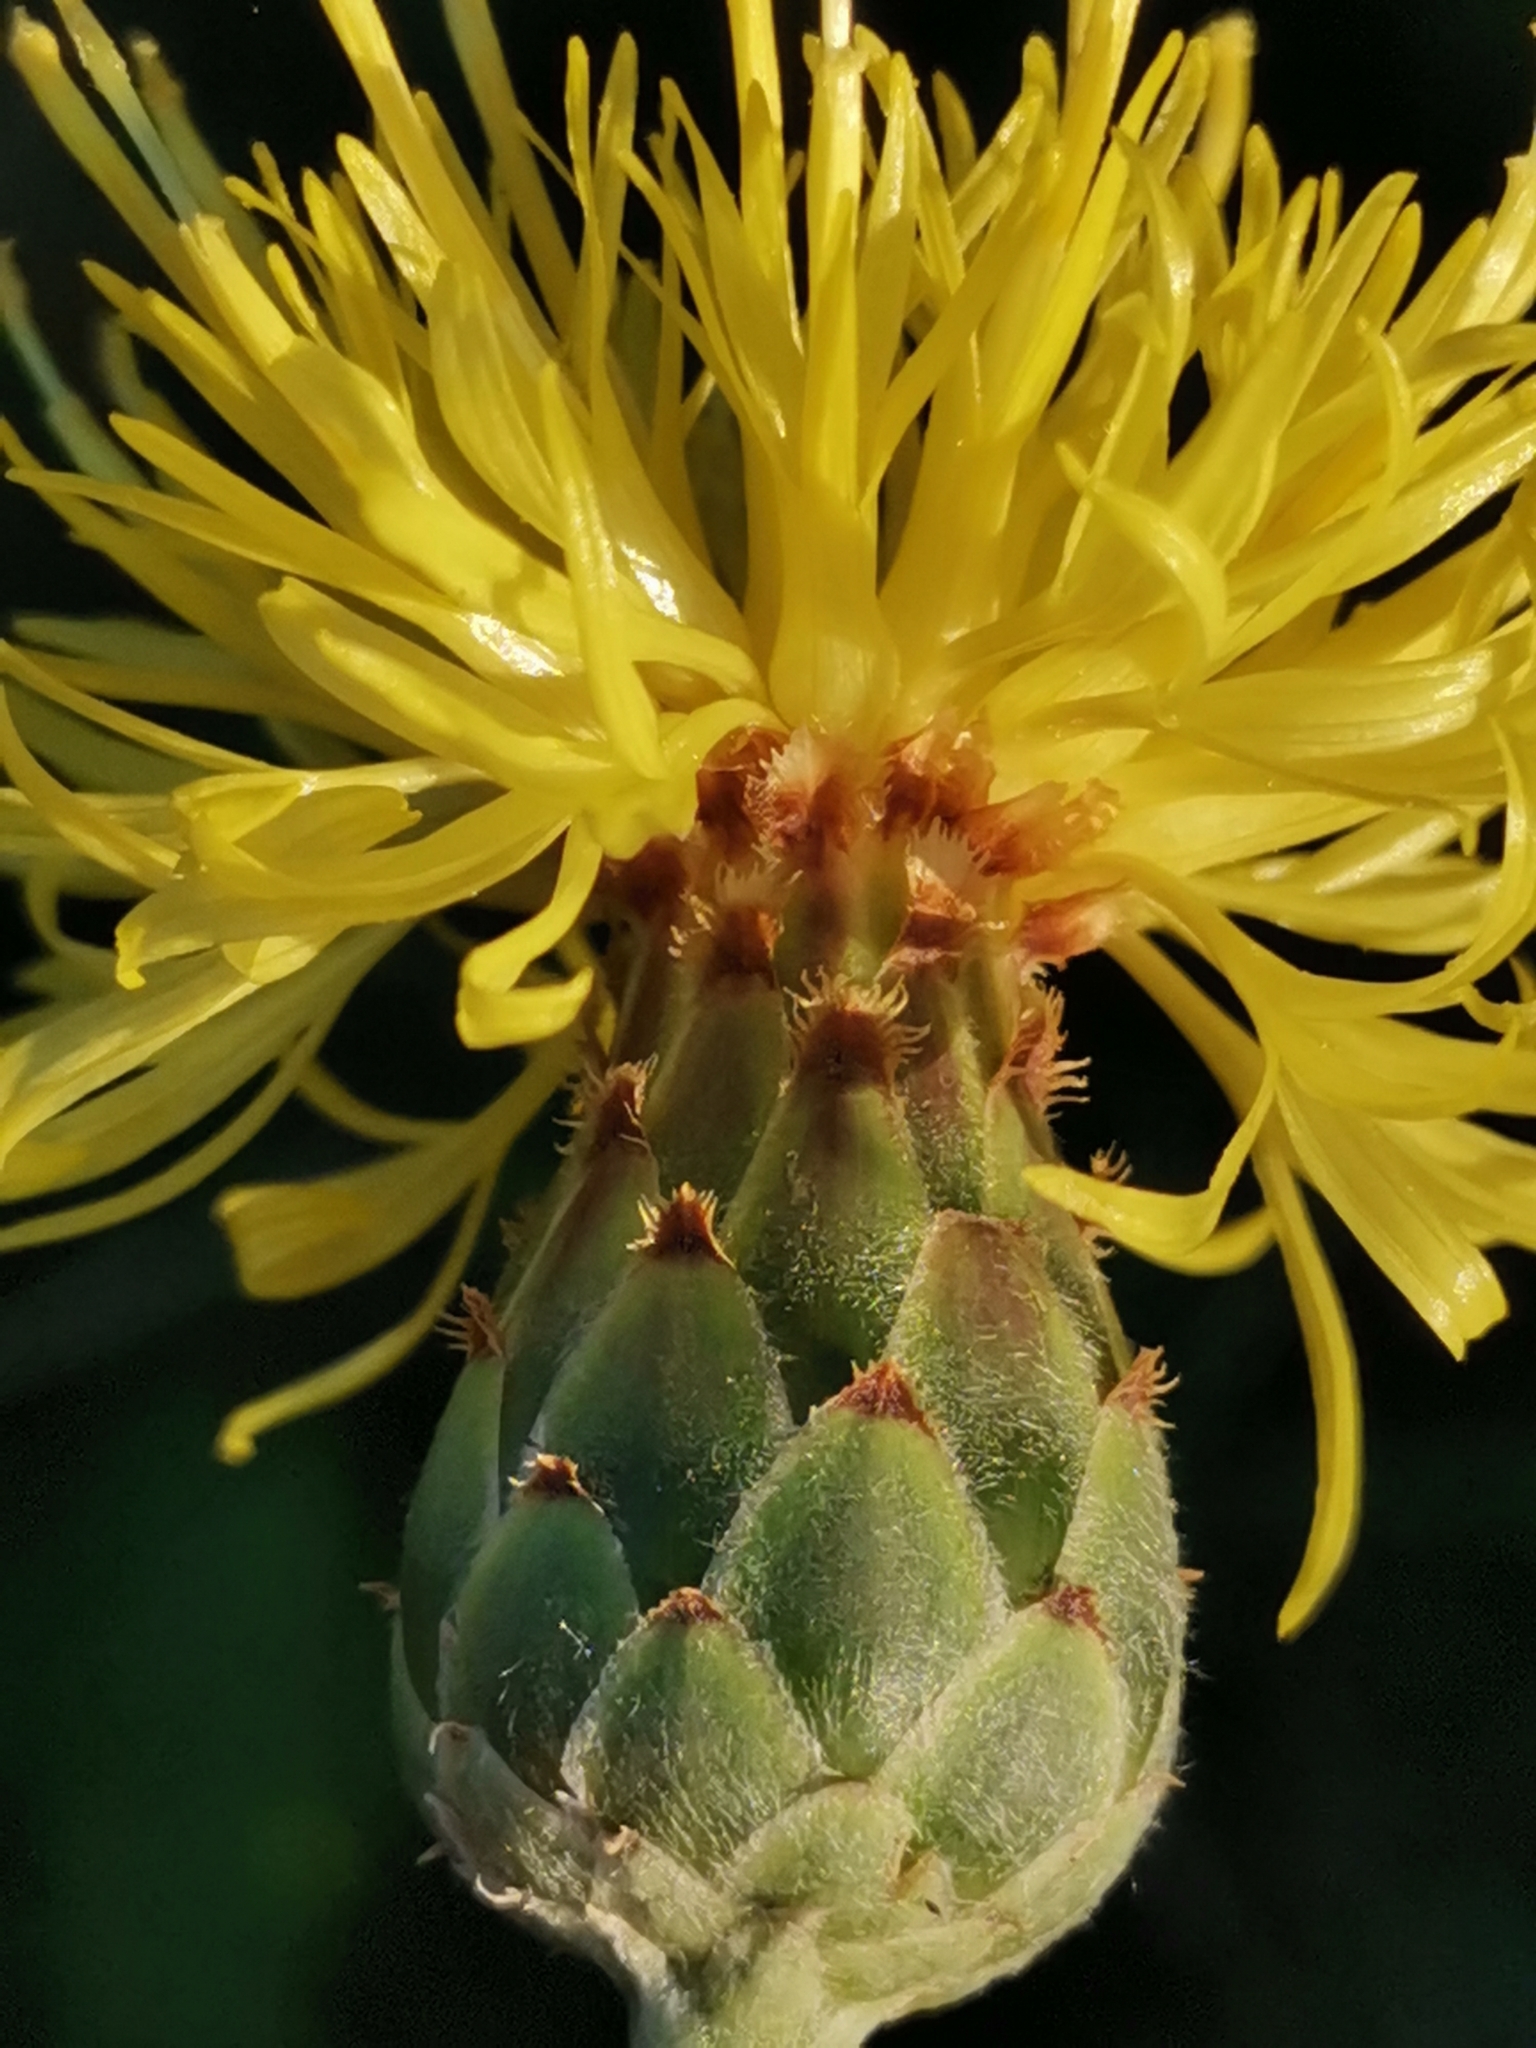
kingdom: Plantae
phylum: Tracheophyta
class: Magnoliopsida
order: Asterales
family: Asteraceae
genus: Centaurea
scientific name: Centaurea rupestris
